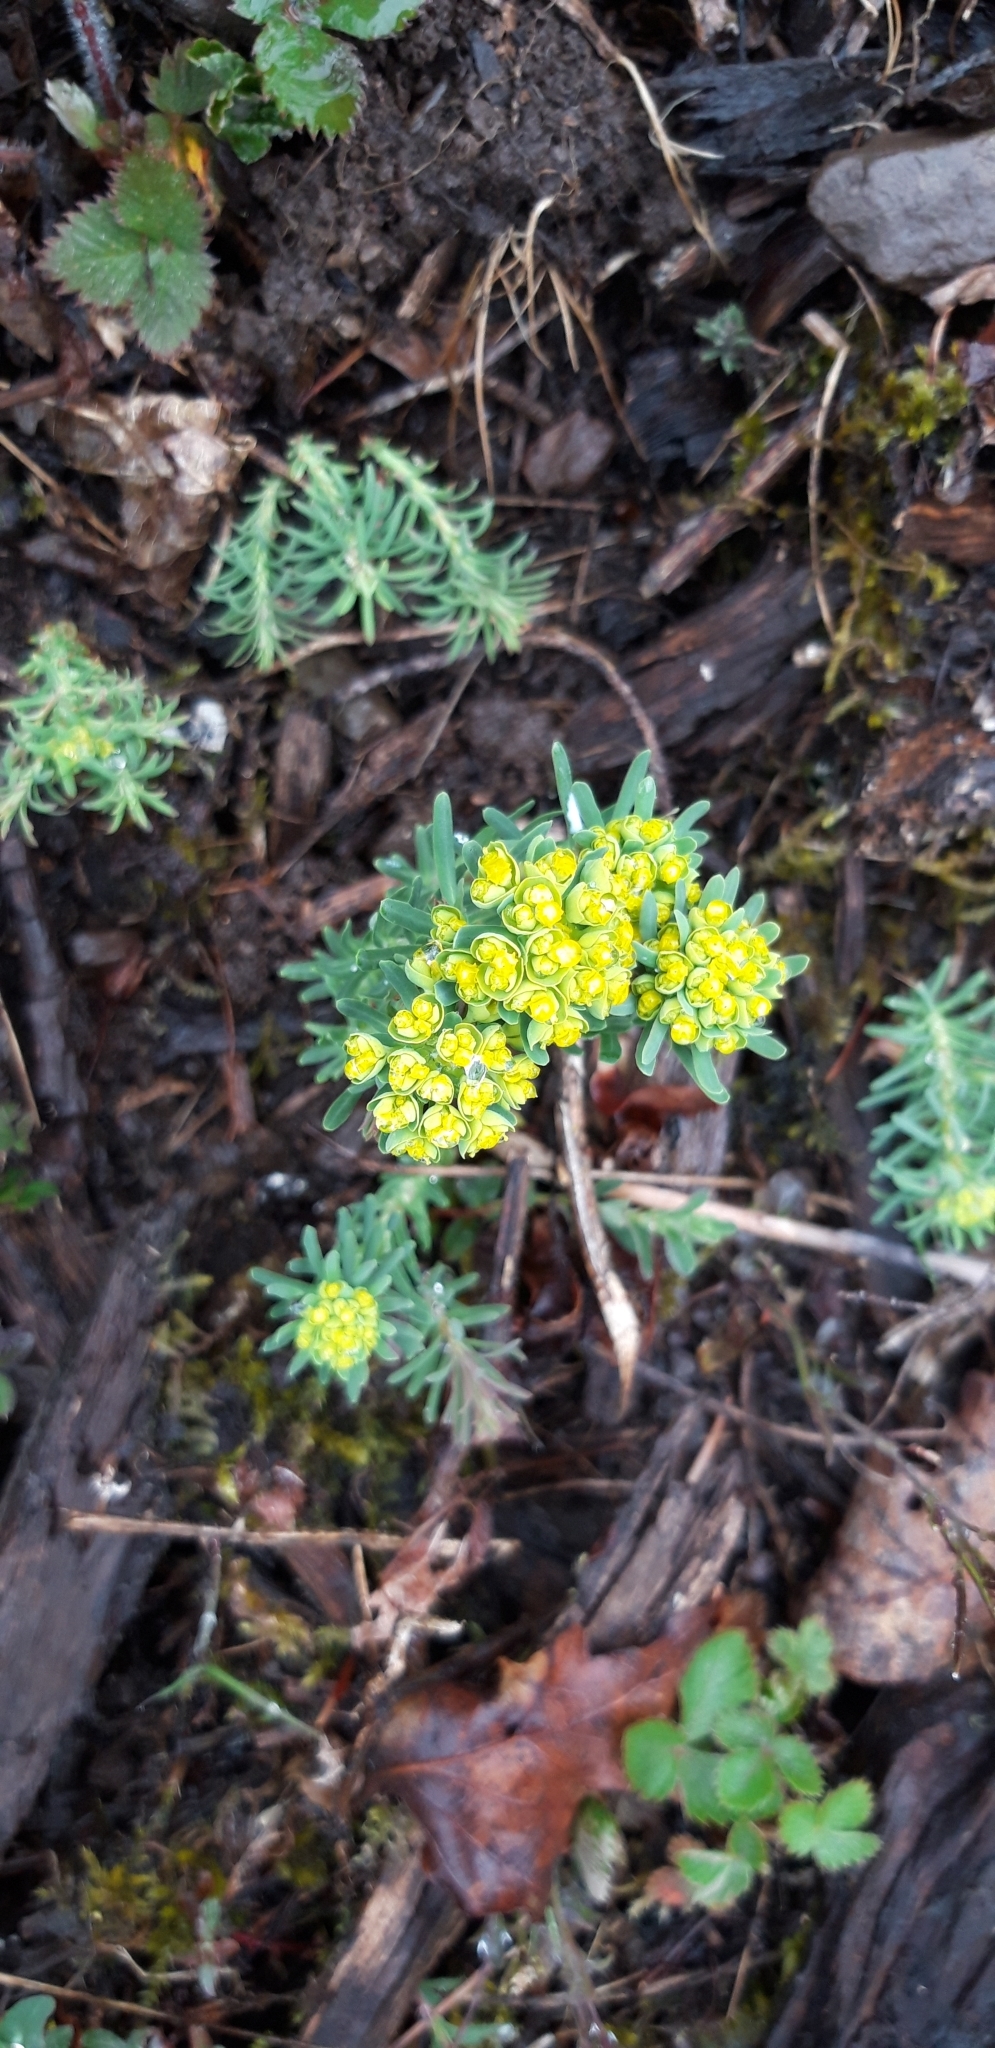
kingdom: Plantae
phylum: Tracheophyta
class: Magnoliopsida
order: Malpighiales
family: Euphorbiaceae
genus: Euphorbia
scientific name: Euphorbia cyparissias
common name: Cypress spurge
